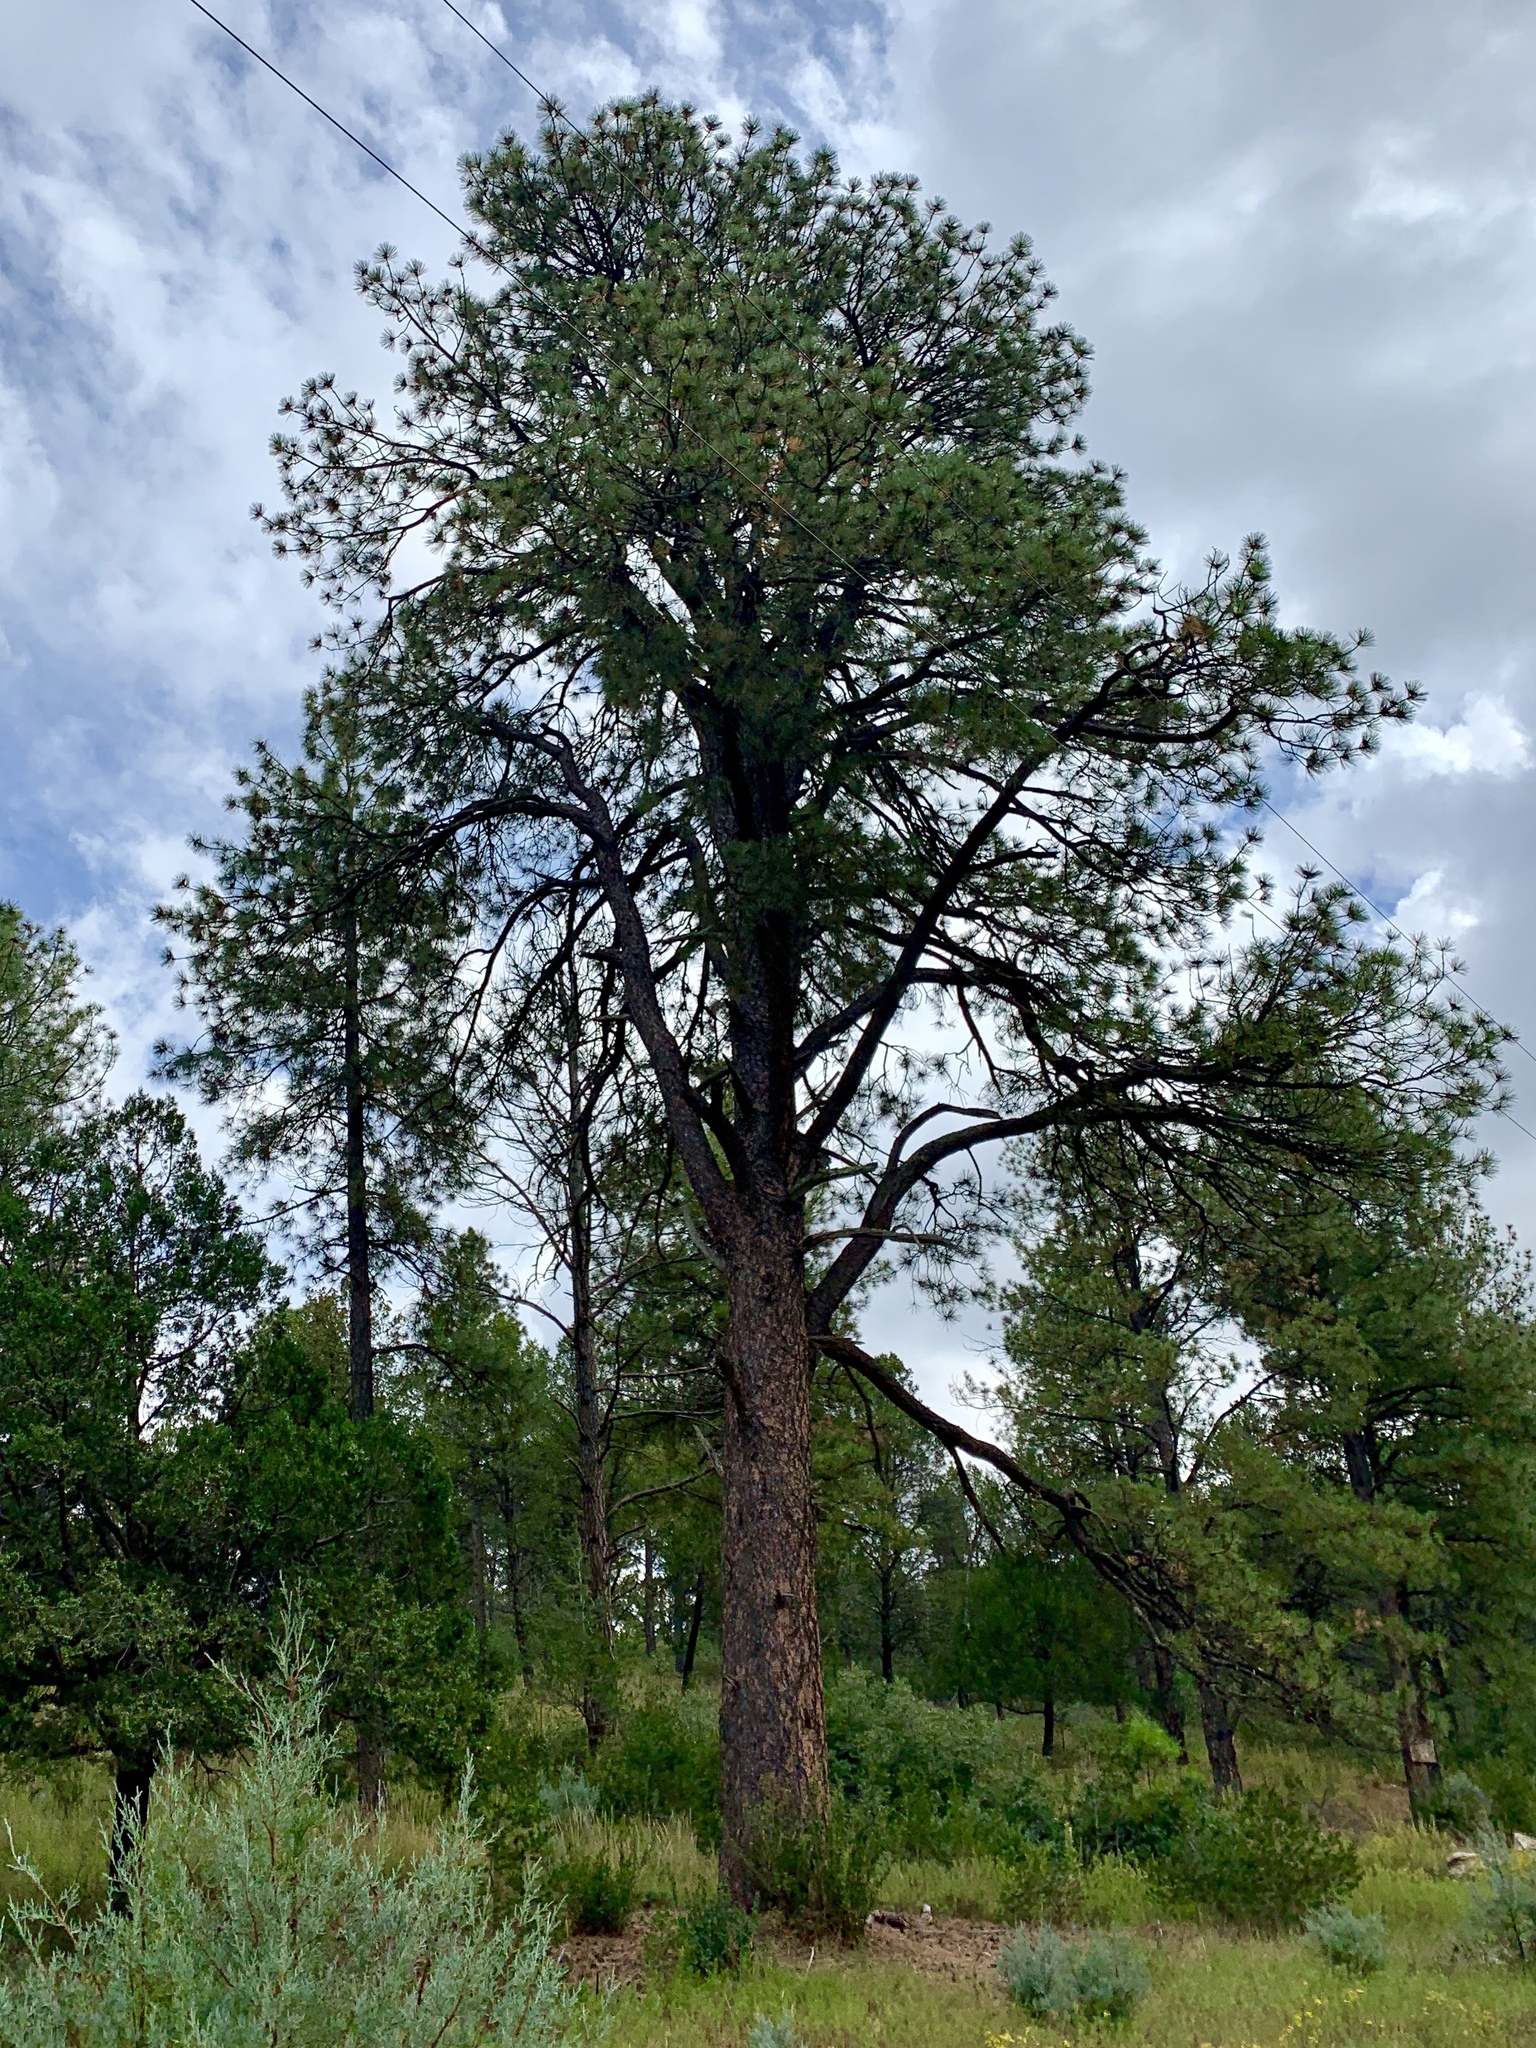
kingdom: Plantae
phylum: Tracheophyta
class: Pinopsida
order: Pinales
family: Pinaceae
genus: Pinus
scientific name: Pinus ponderosa
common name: Western yellow-pine
